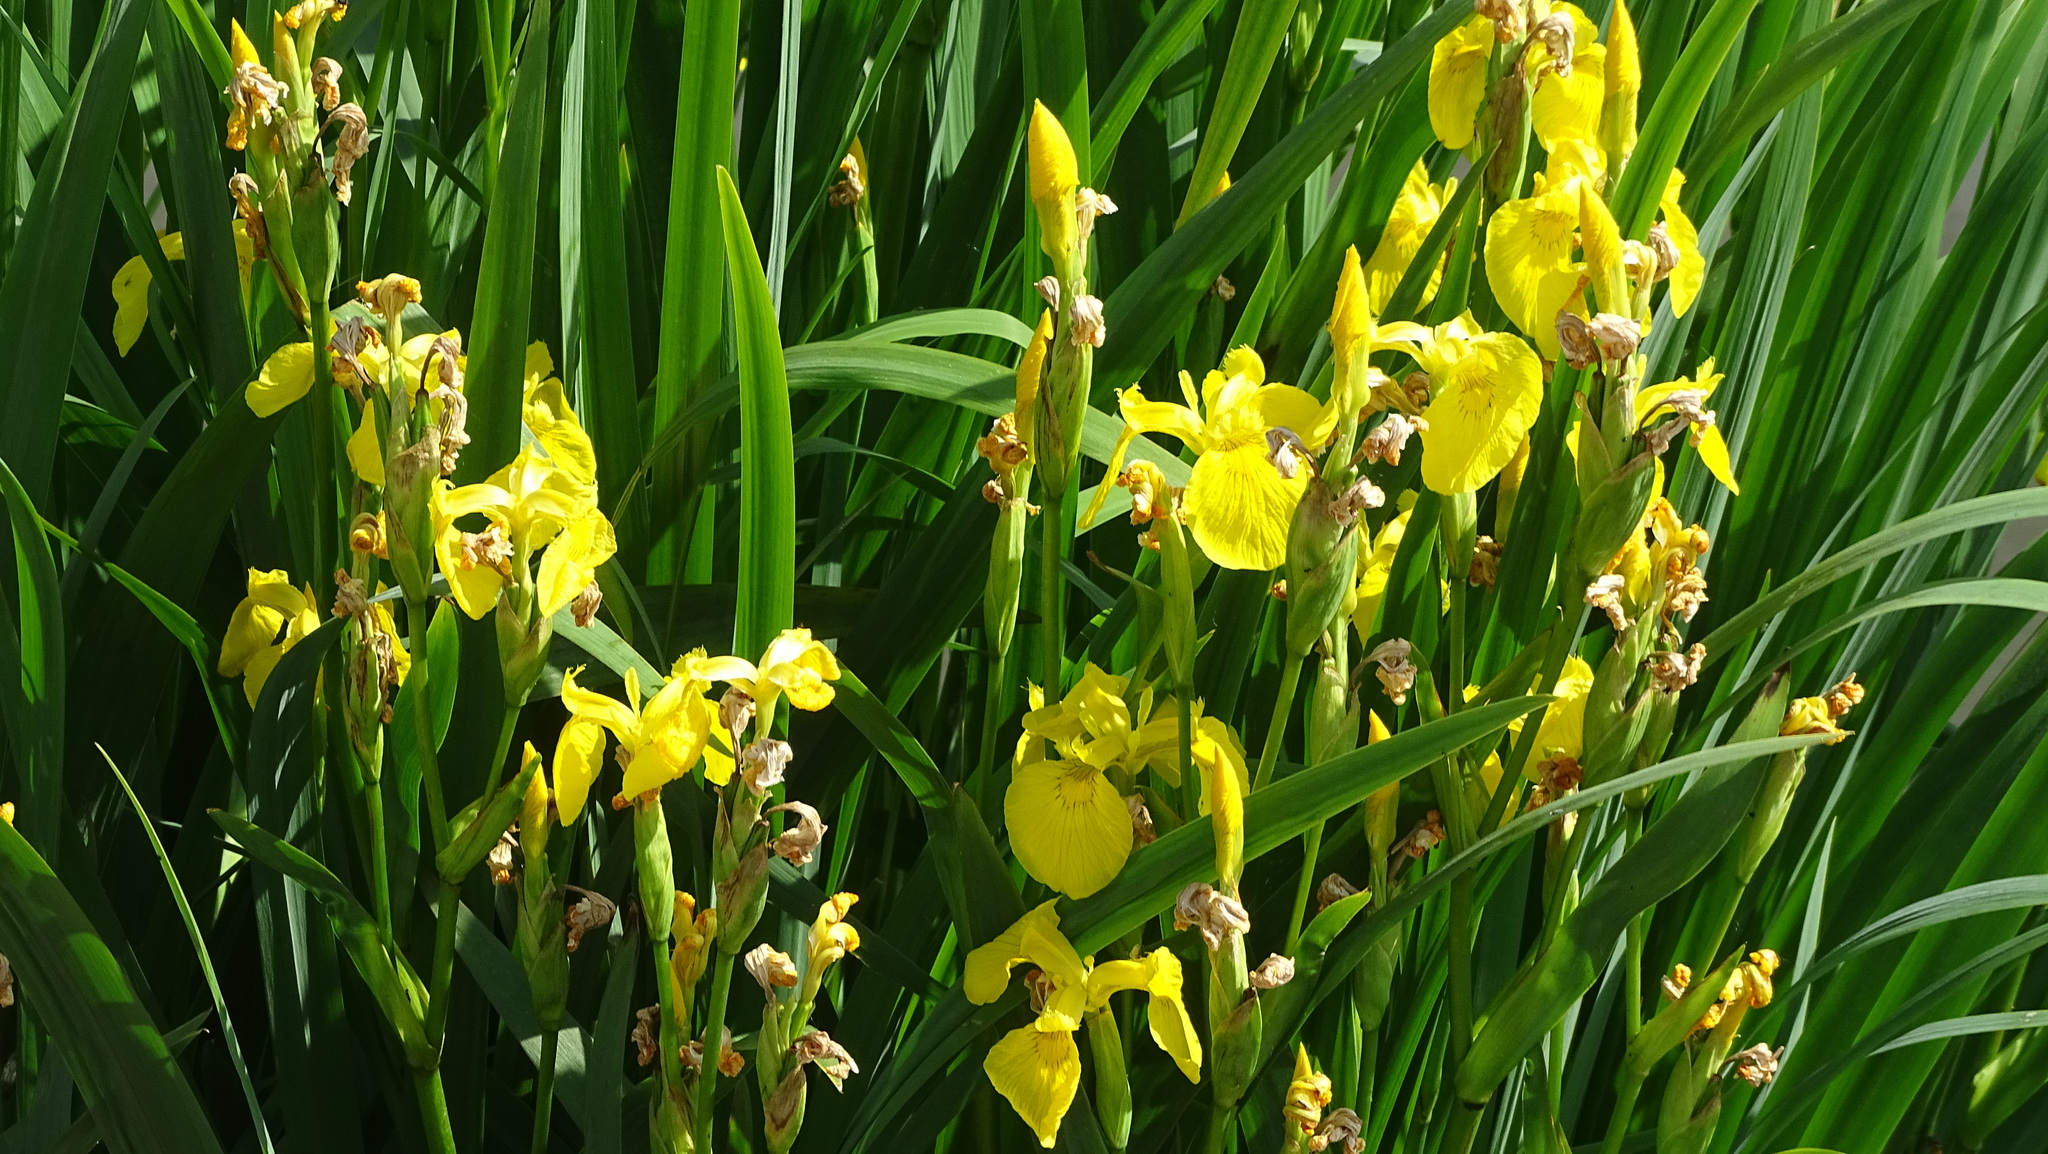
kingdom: Plantae
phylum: Tracheophyta
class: Liliopsida
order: Asparagales
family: Iridaceae
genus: Iris
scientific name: Iris pseudacorus
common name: Yellow flag
